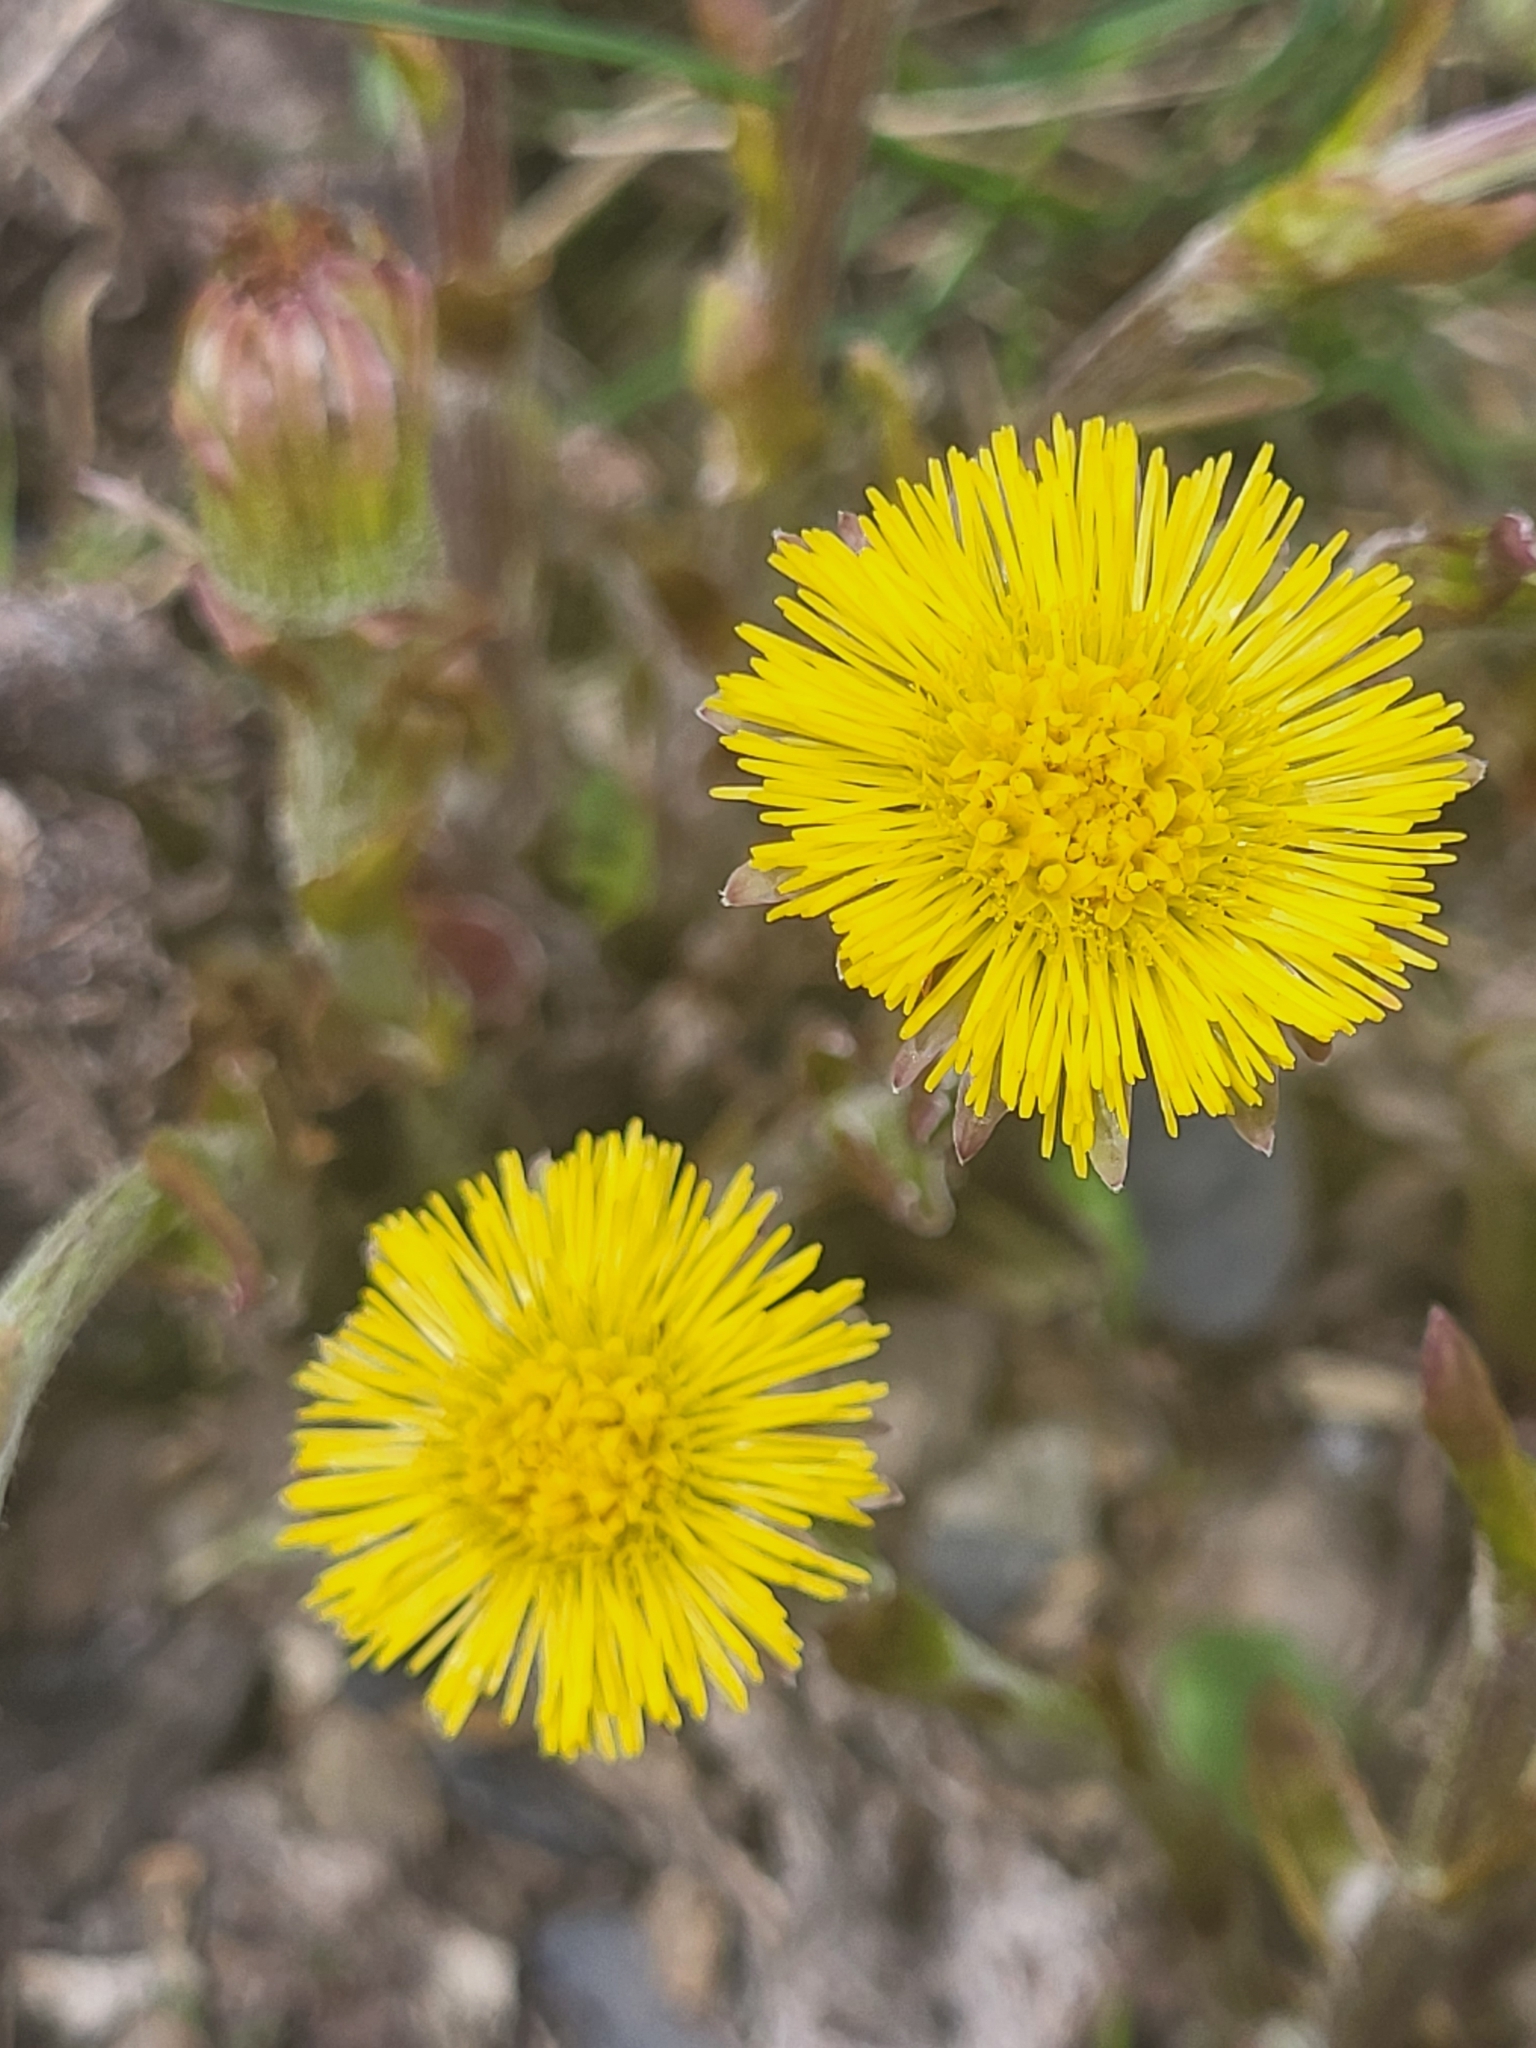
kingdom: Plantae
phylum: Tracheophyta
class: Magnoliopsida
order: Asterales
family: Asteraceae
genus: Tussilago
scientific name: Tussilago farfara
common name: Coltsfoot
